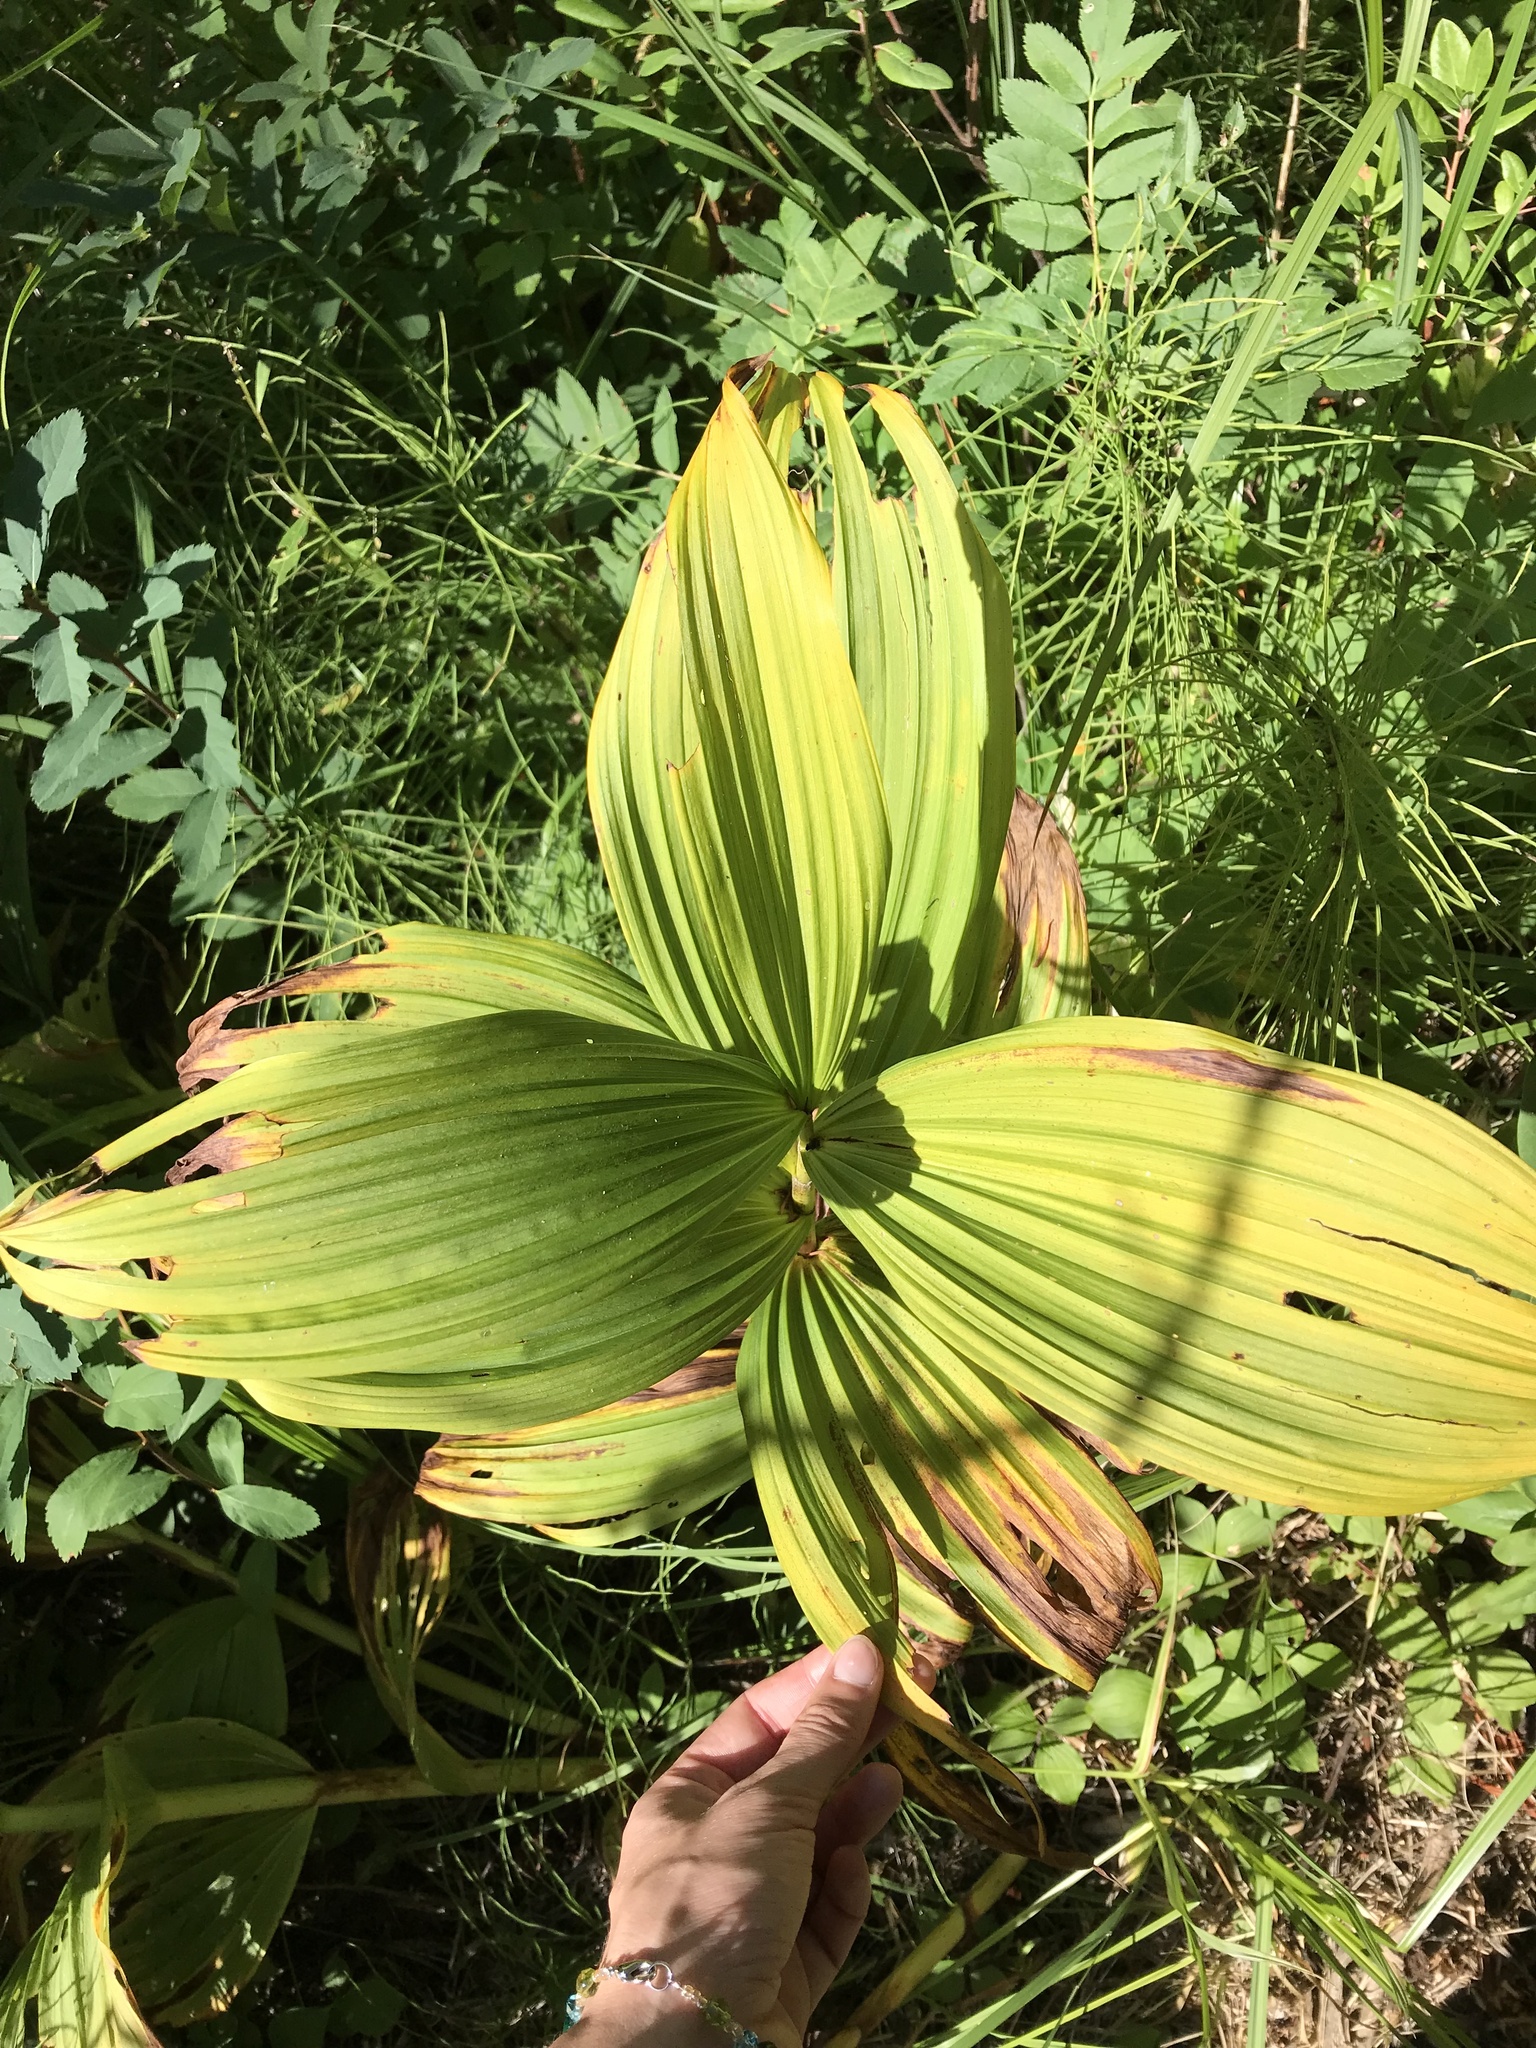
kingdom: Plantae
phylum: Tracheophyta
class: Liliopsida
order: Liliales
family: Melanthiaceae
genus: Veratrum
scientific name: Veratrum viride
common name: American false hellebore
